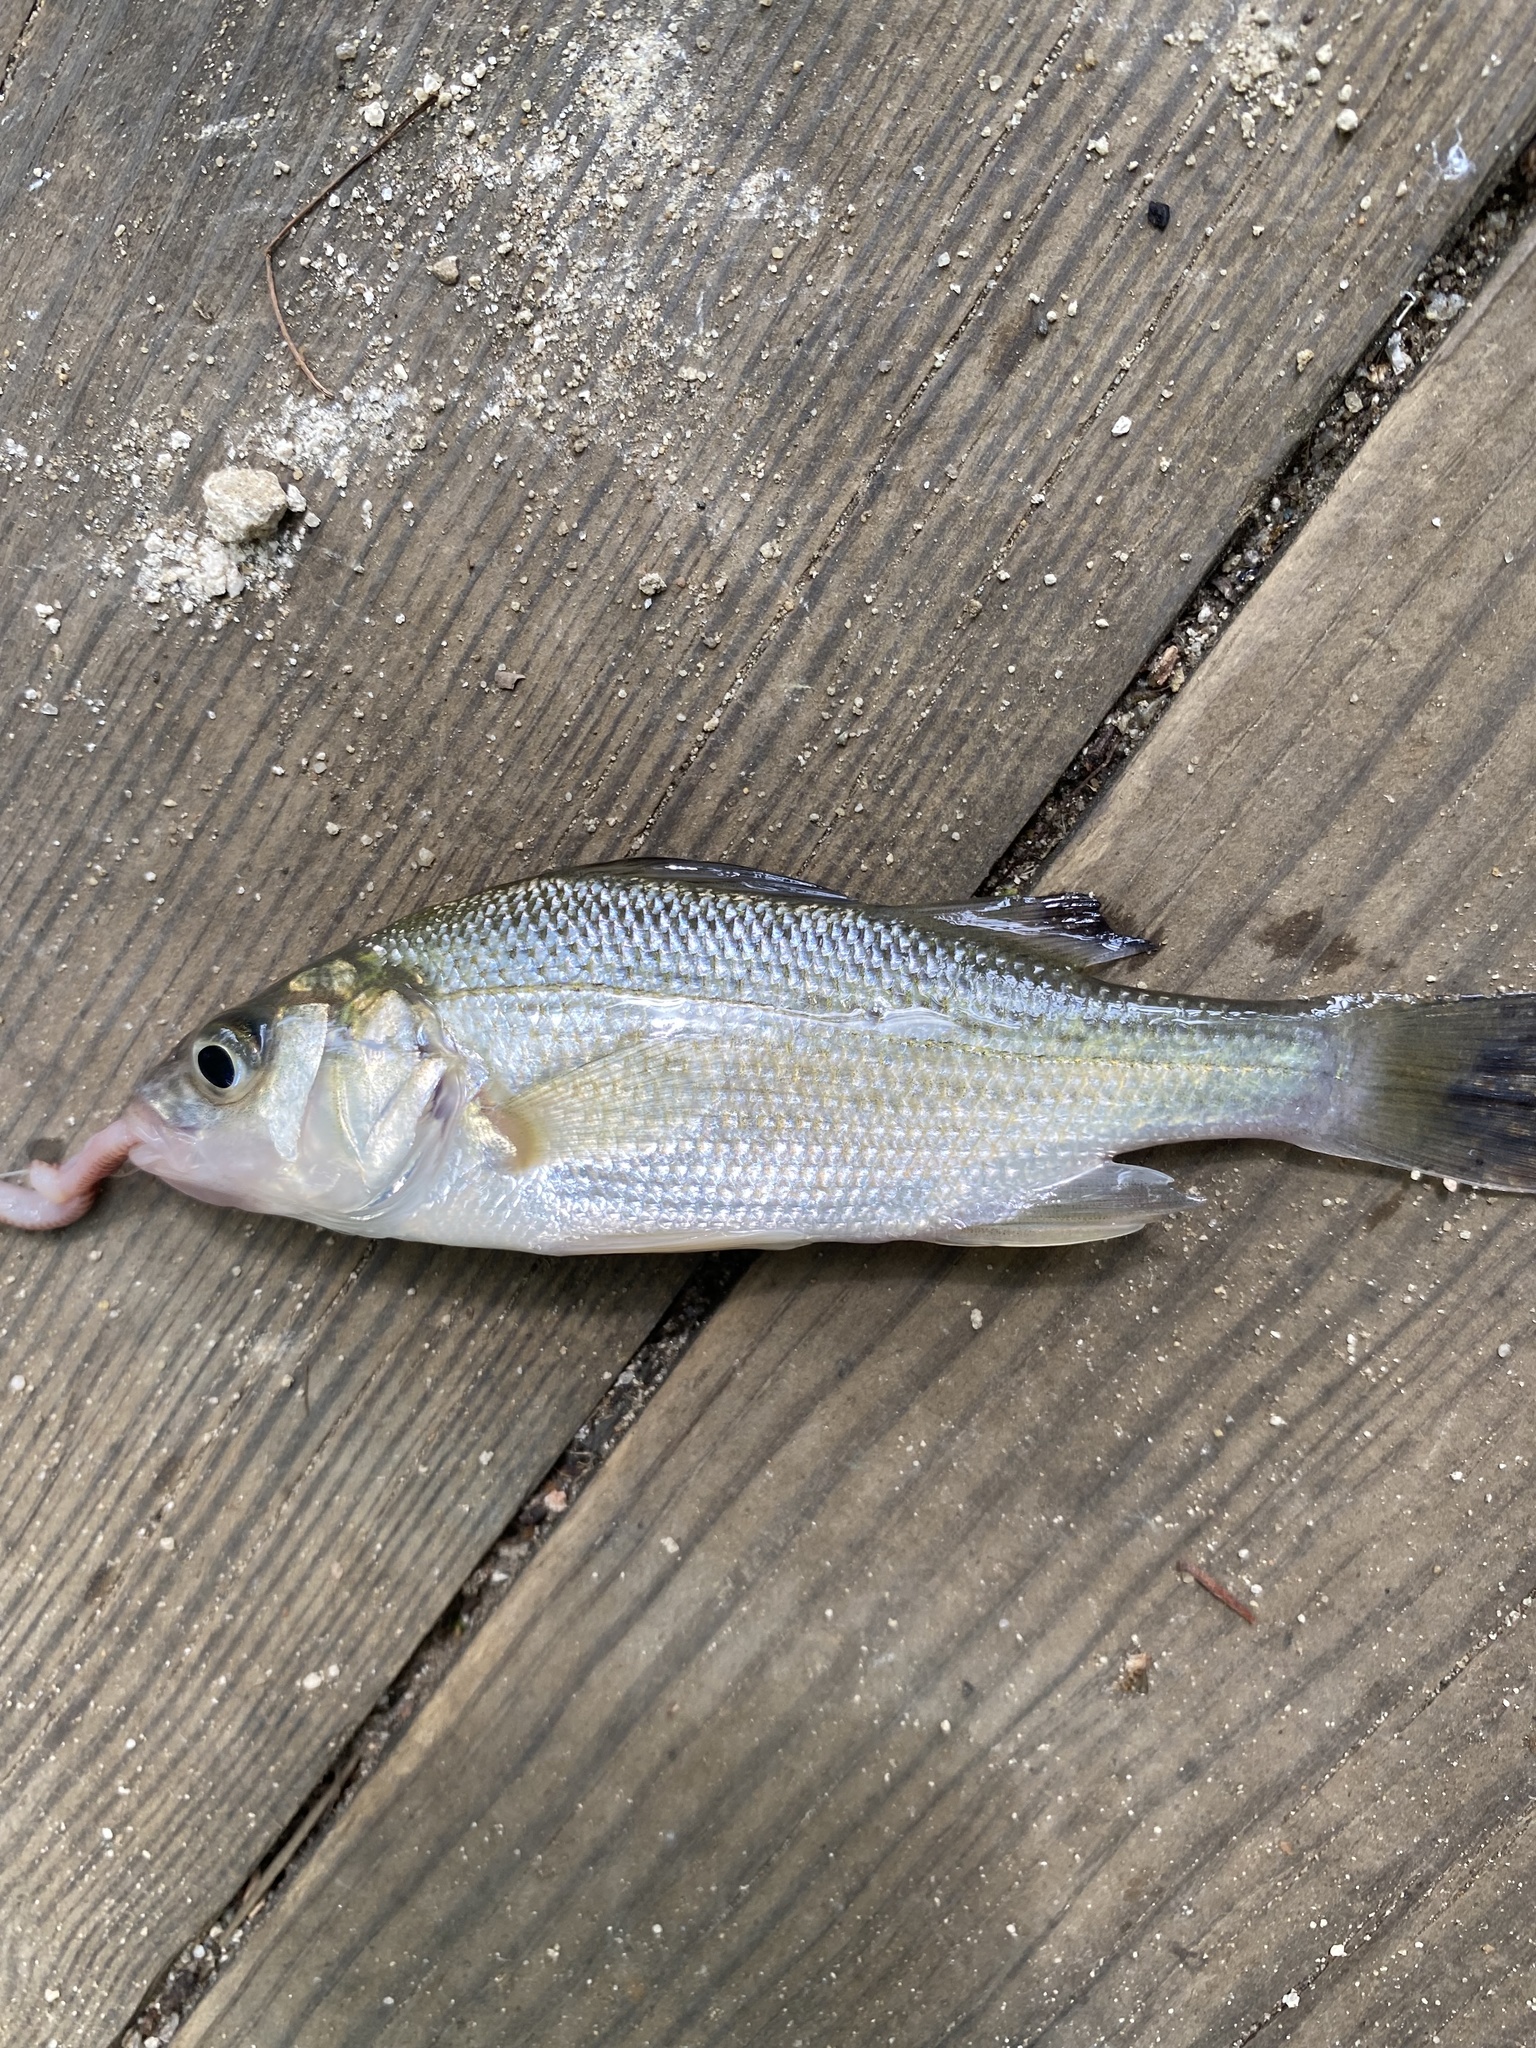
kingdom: Animalia
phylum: Chordata
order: Perciformes
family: Moronidae
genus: Morone
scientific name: Morone americana
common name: White perch
